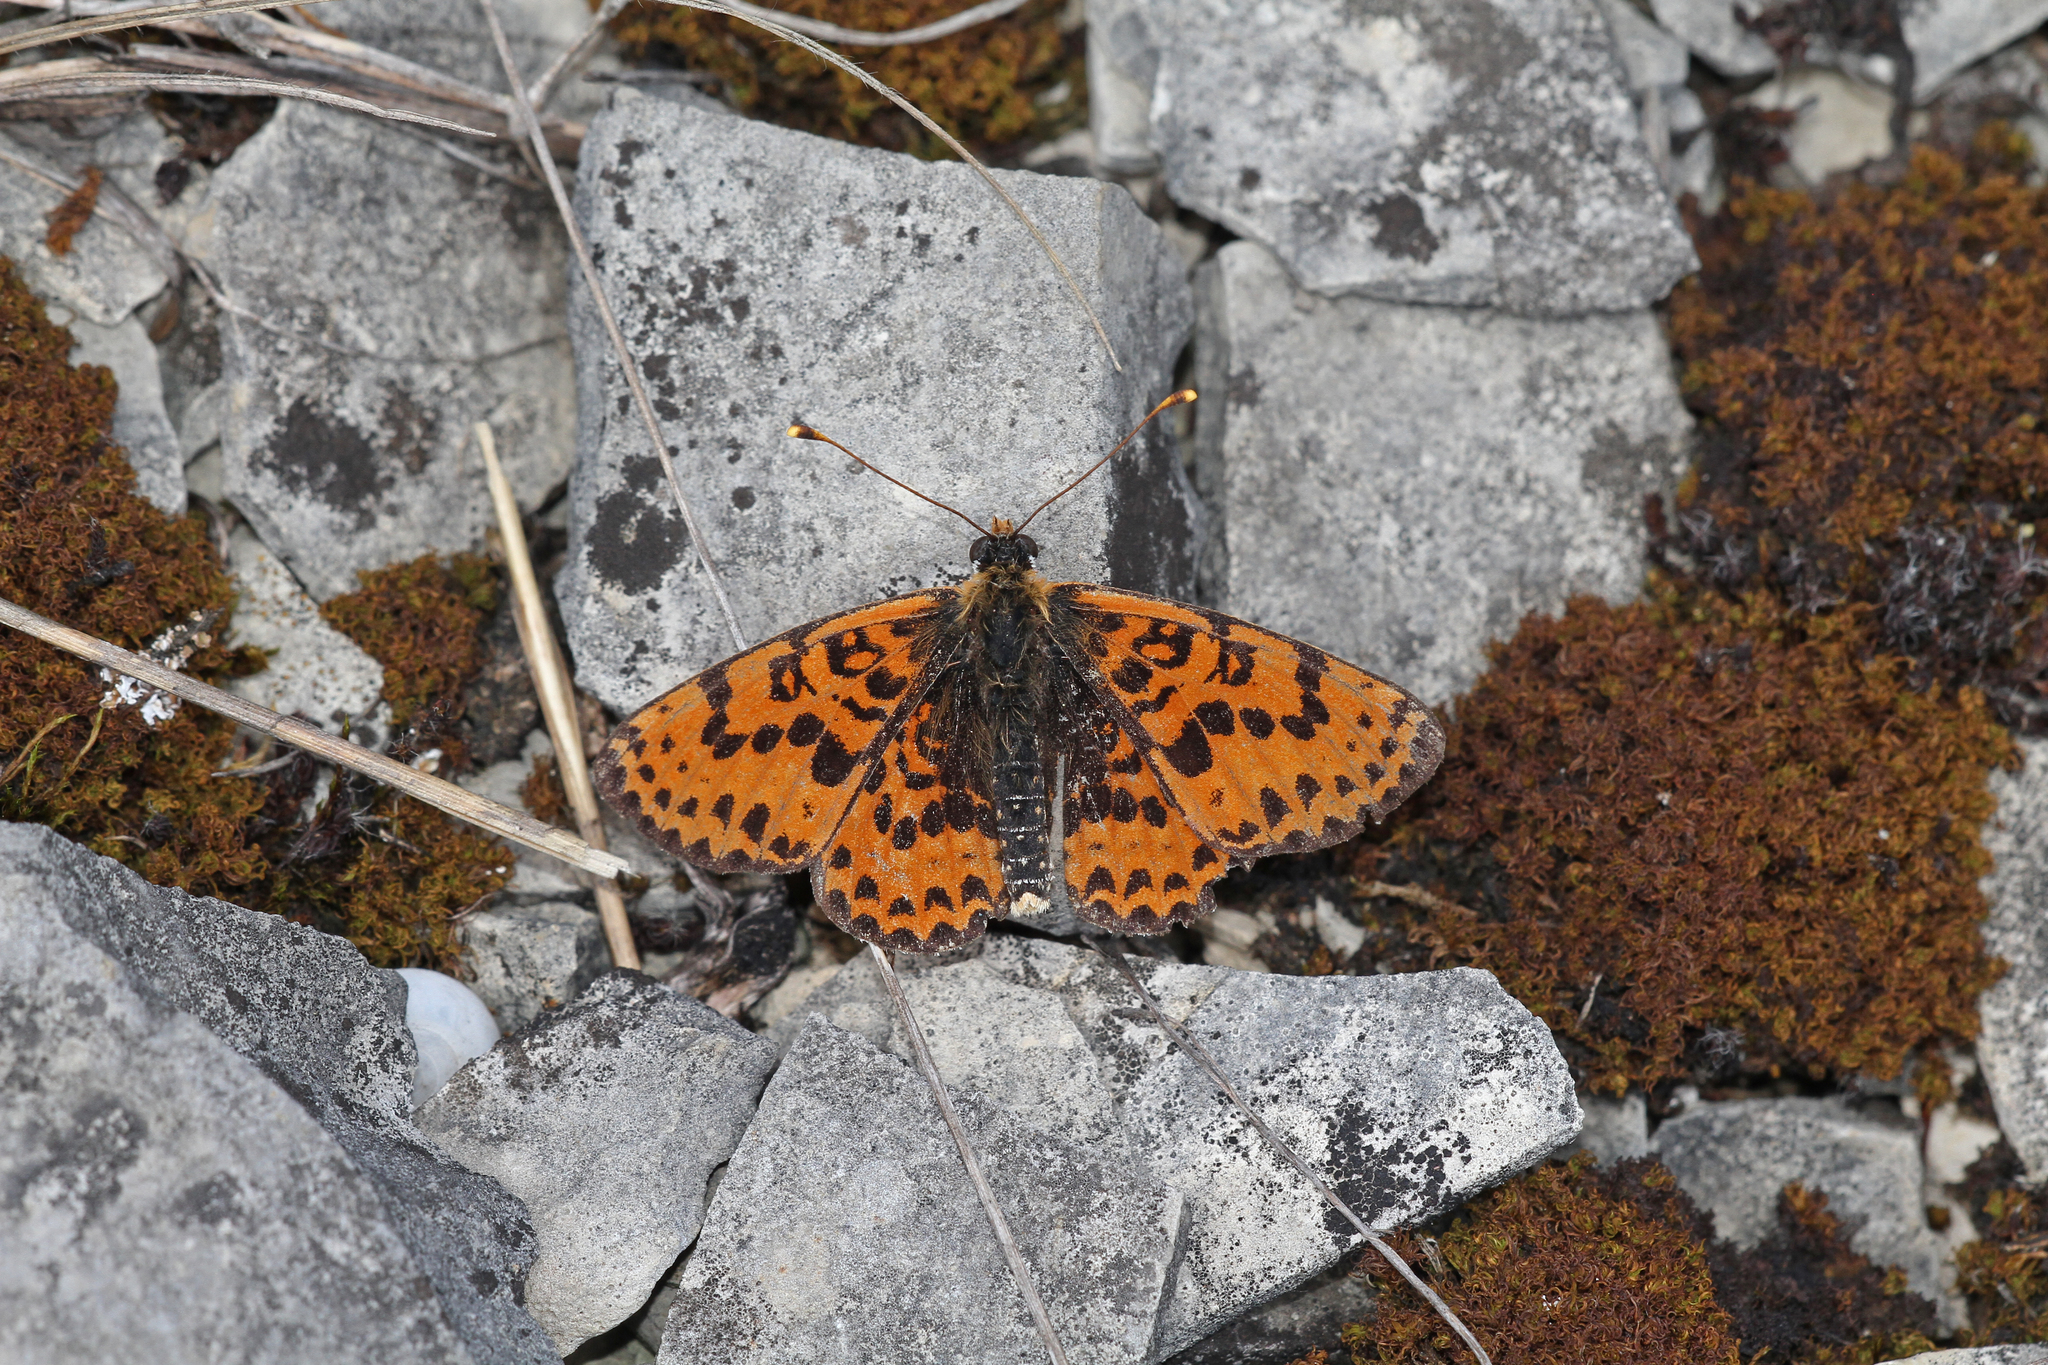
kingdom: Animalia
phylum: Arthropoda
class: Insecta
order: Lepidoptera
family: Nymphalidae
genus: Melitaea
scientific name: Melitaea didyma
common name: Spotted fritillary
